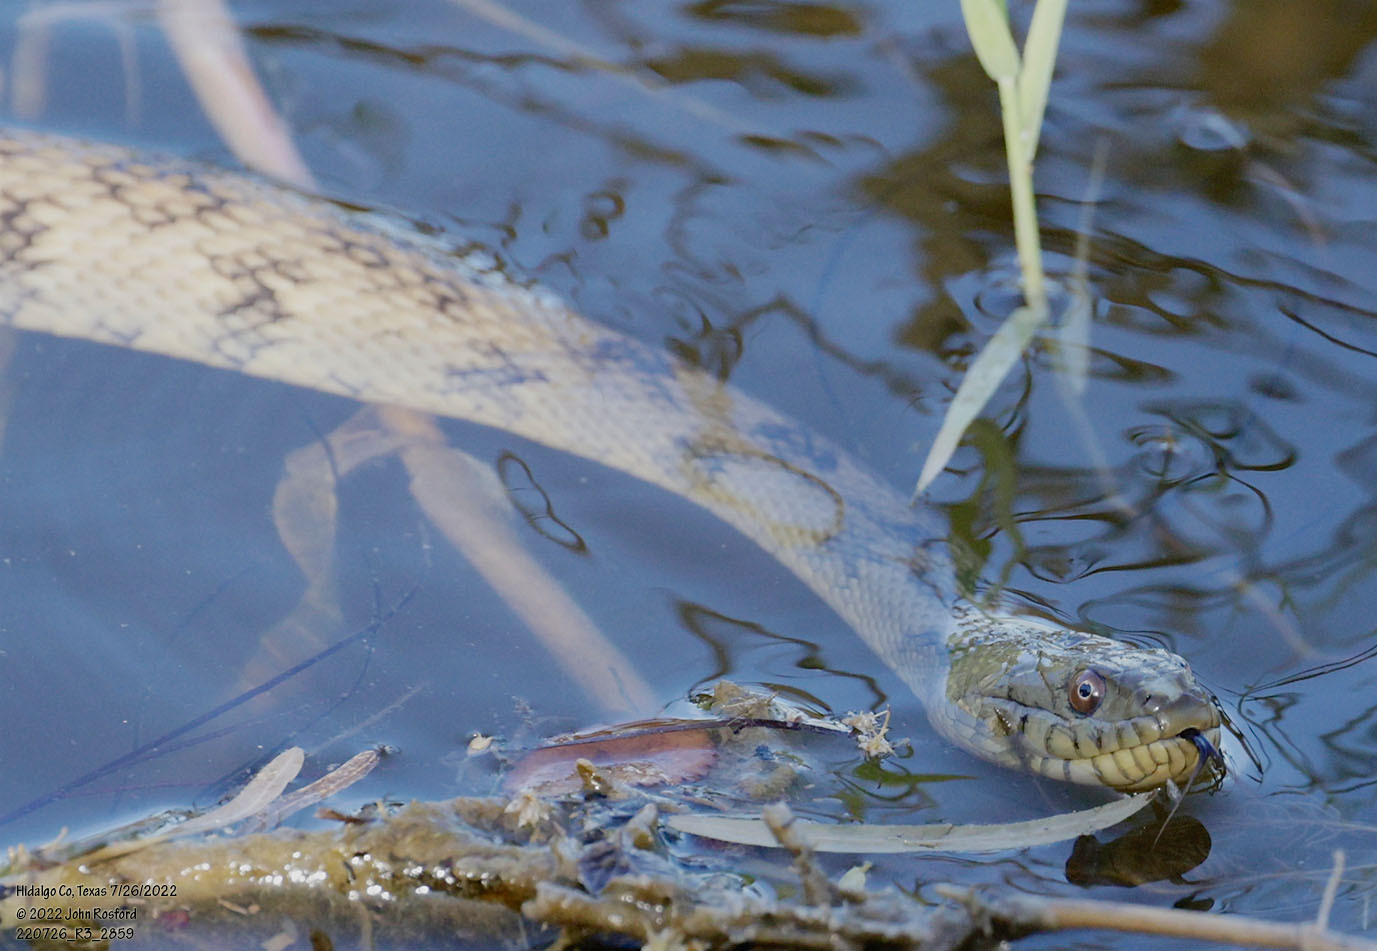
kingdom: Animalia
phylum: Chordata
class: Squamata
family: Colubridae
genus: Nerodia
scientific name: Nerodia rhombifer
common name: Diamondback water snake
